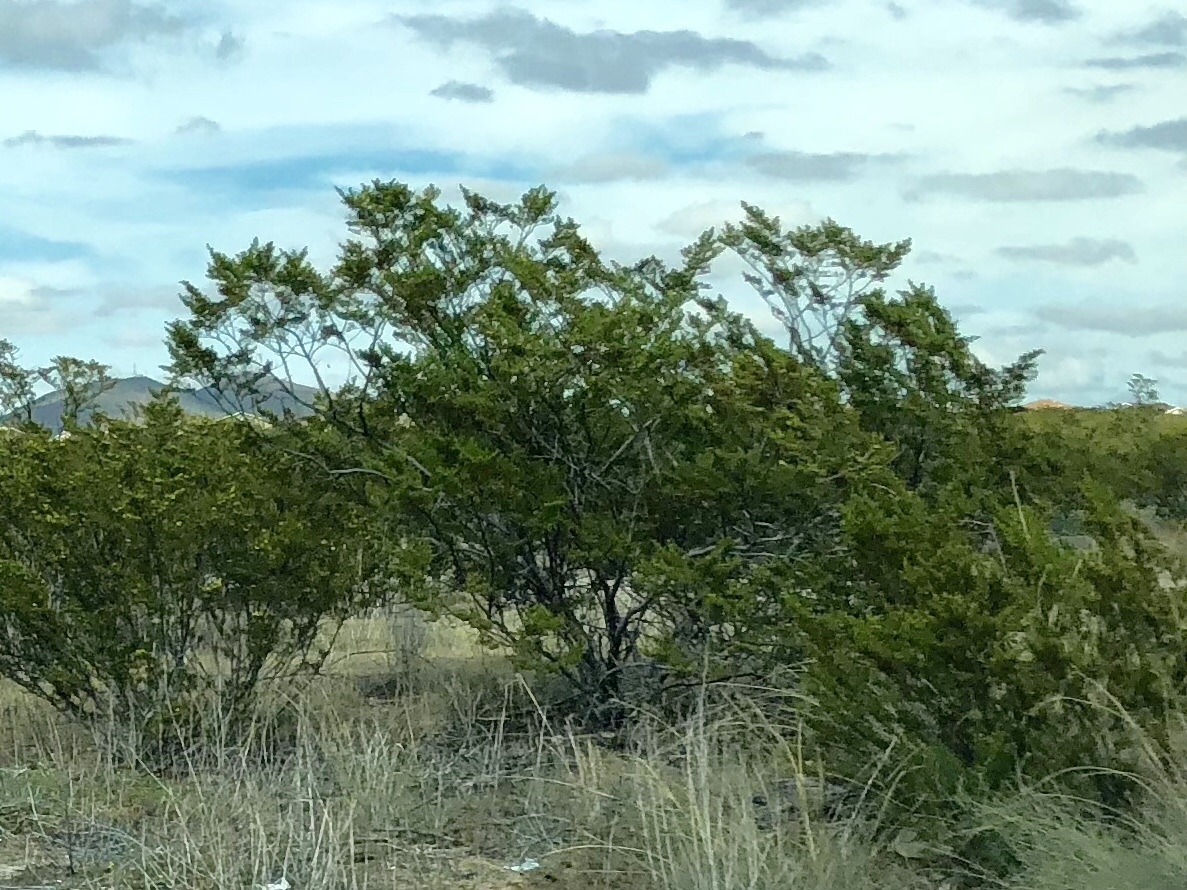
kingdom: Plantae
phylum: Tracheophyta
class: Magnoliopsida
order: Zygophyllales
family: Zygophyllaceae
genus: Larrea
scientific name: Larrea tridentata
